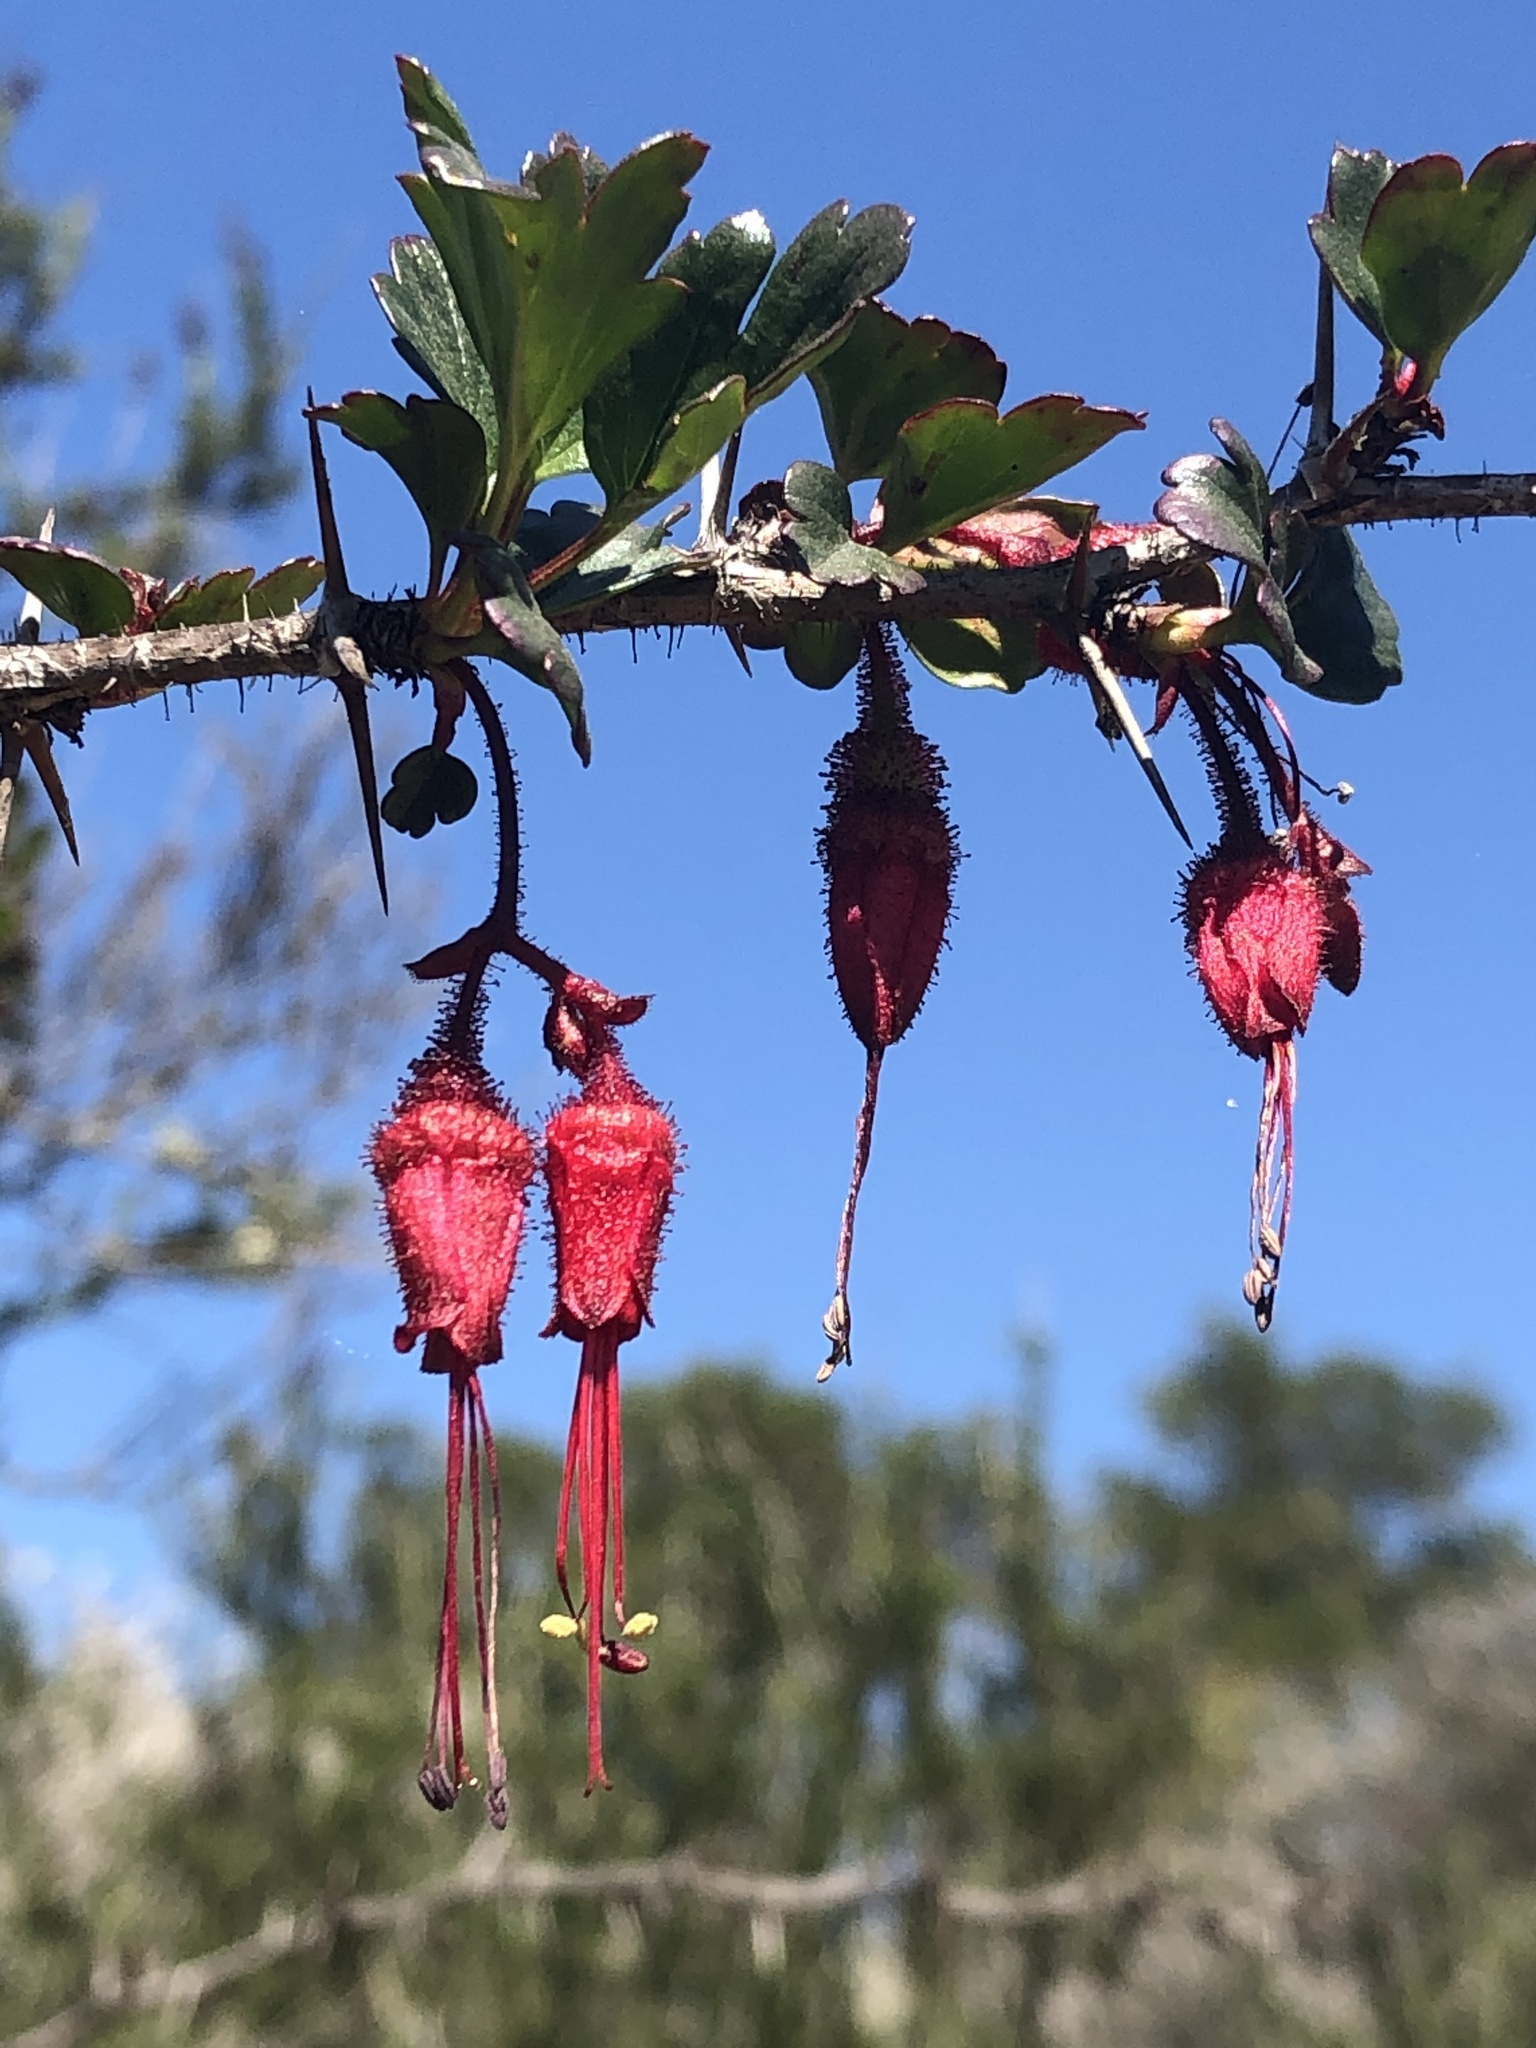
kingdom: Plantae
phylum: Tracheophyta
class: Magnoliopsida
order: Saxifragales
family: Grossulariaceae
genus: Ribes
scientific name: Ribes speciosum
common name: Fuchsia-flower gooseberry
